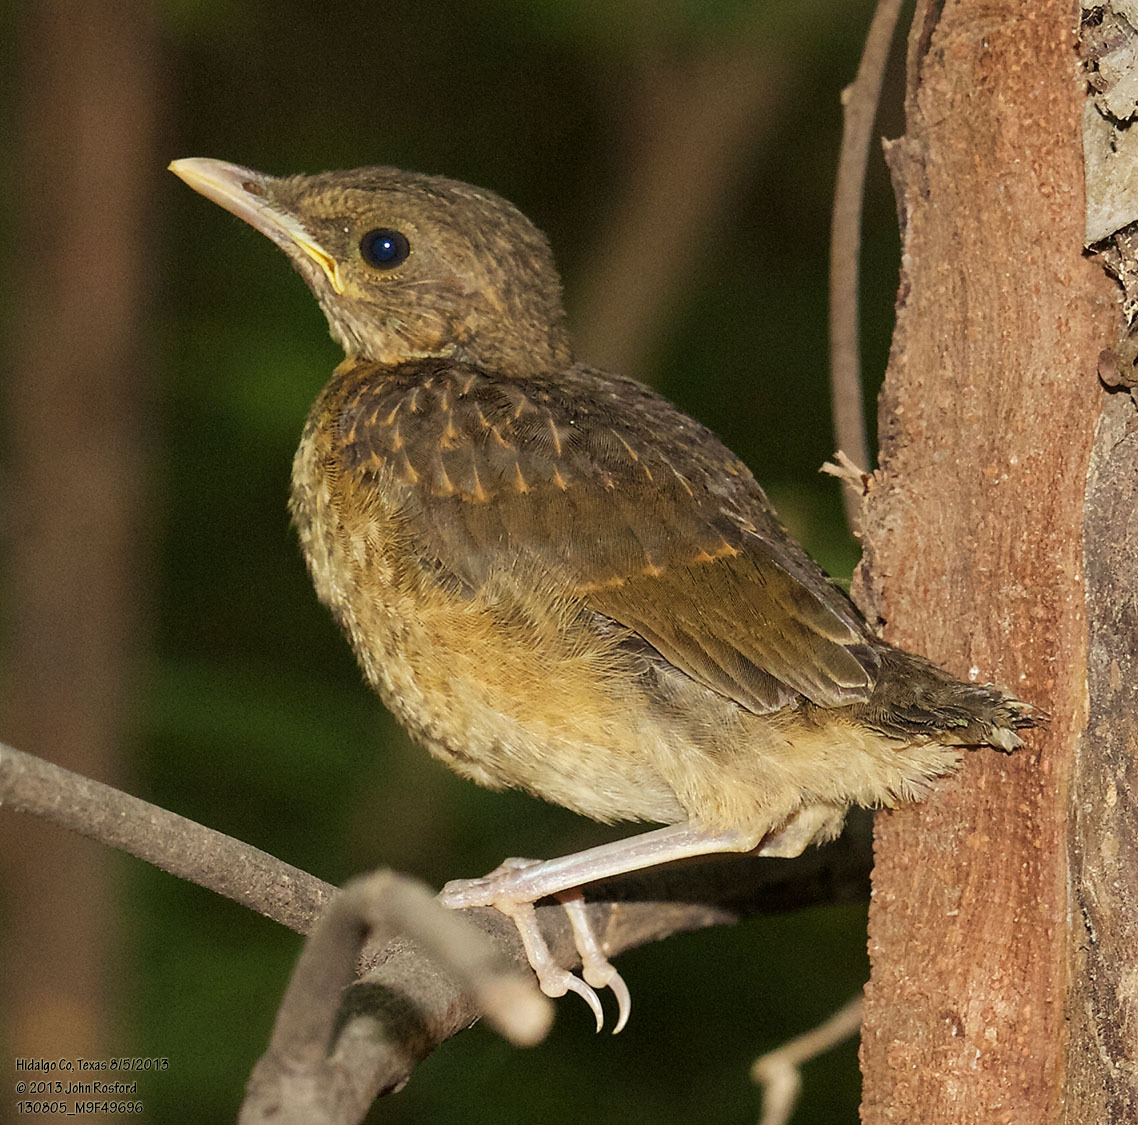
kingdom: Animalia
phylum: Chordata
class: Aves
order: Passeriformes
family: Turdidae
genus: Turdus
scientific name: Turdus grayi
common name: Clay-colored thrush
